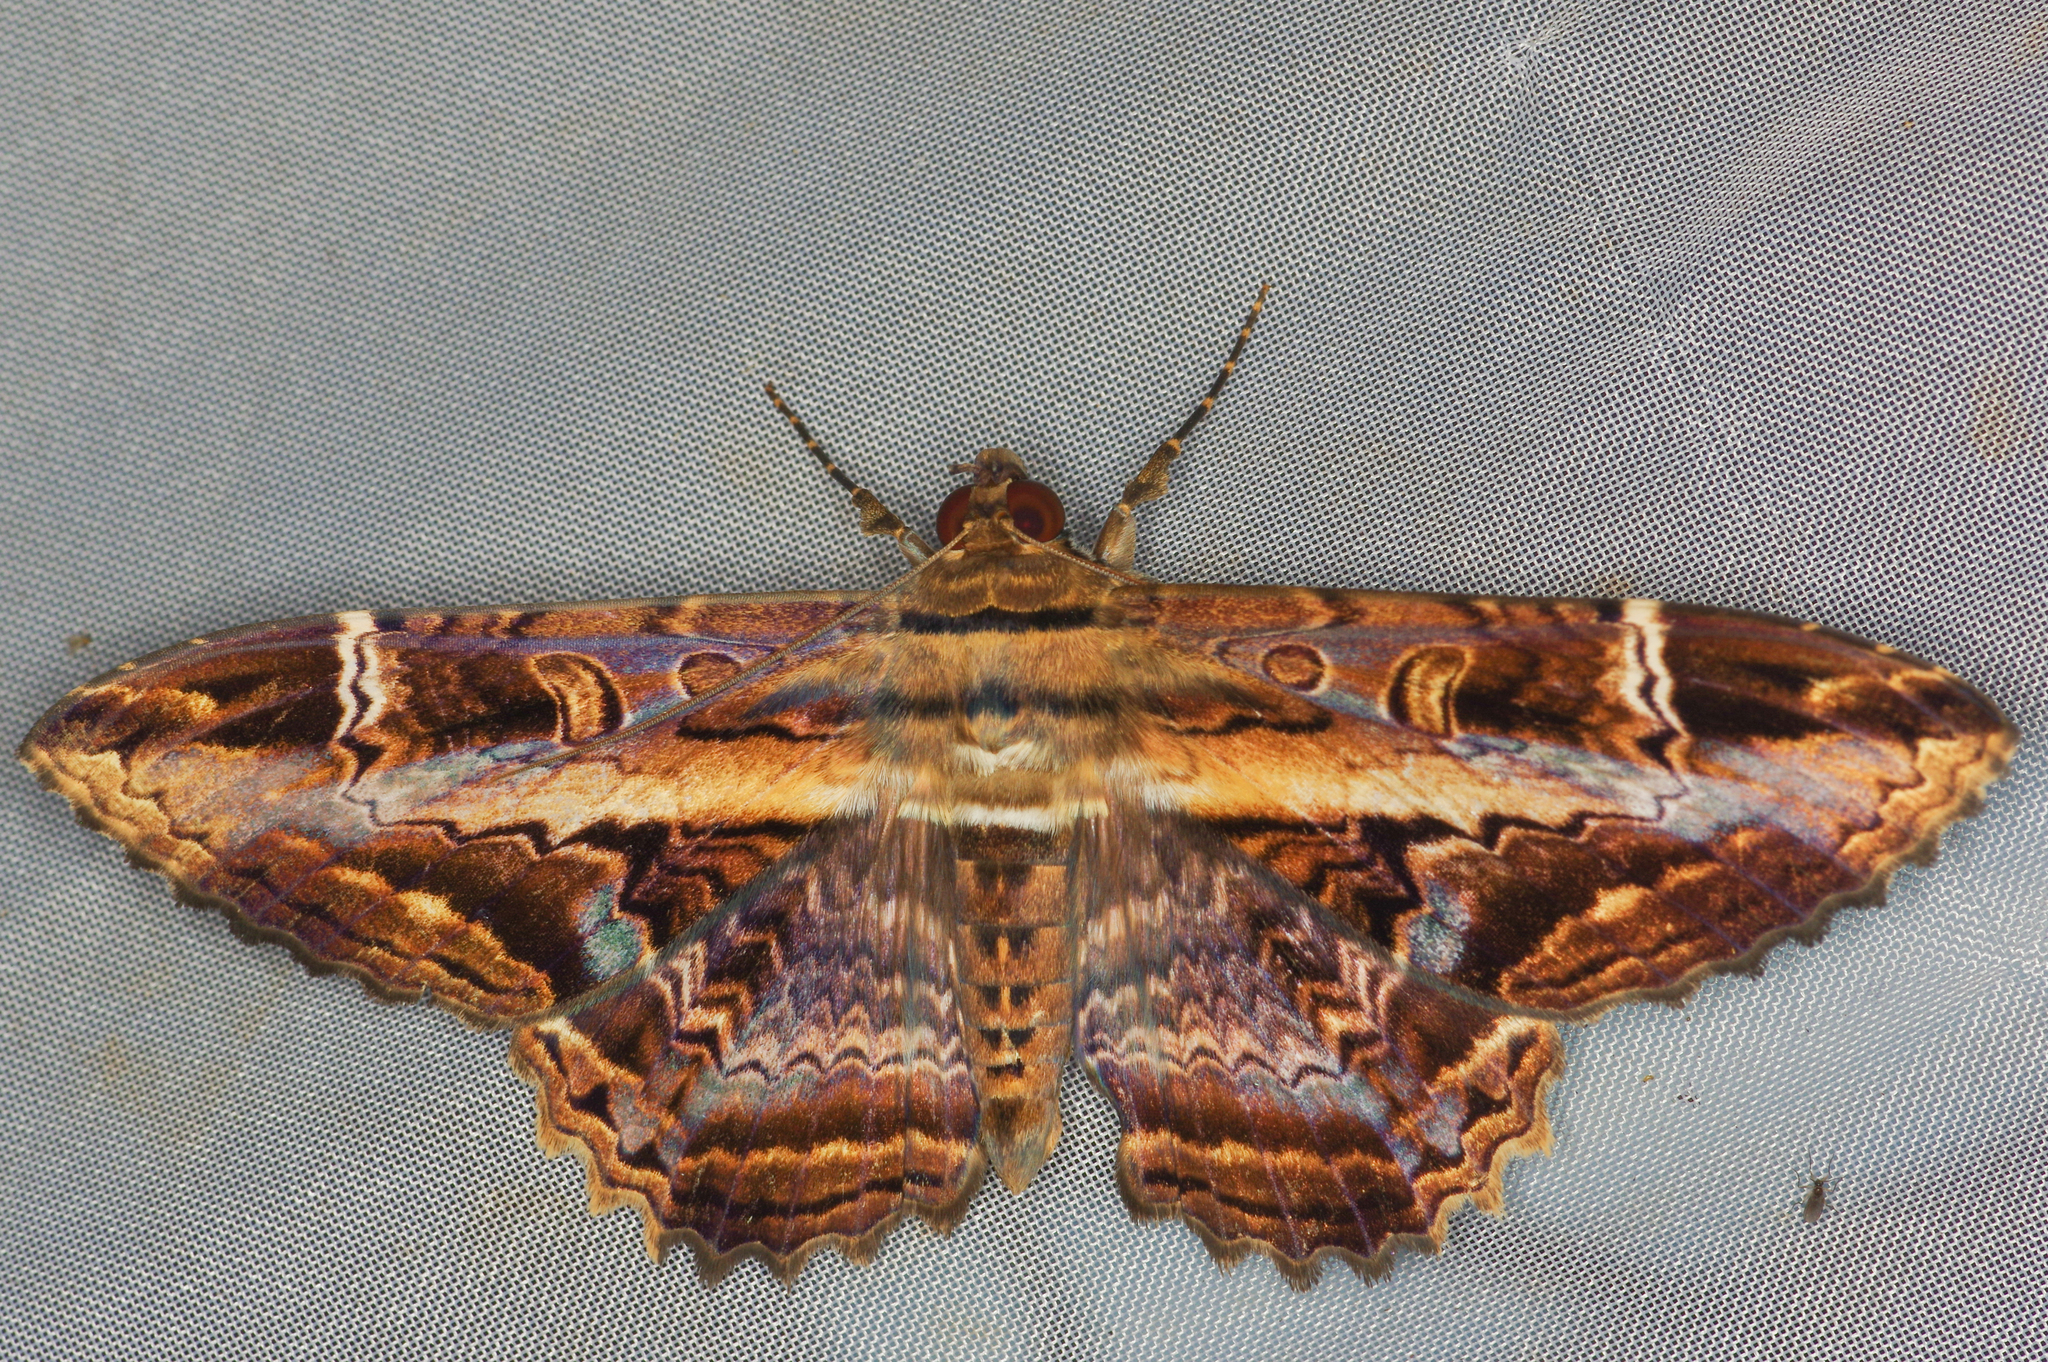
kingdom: Animalia
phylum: Arthropoda
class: Insecta
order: Lepidoptera
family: Noctuidae
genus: Ronania
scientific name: Ronania
